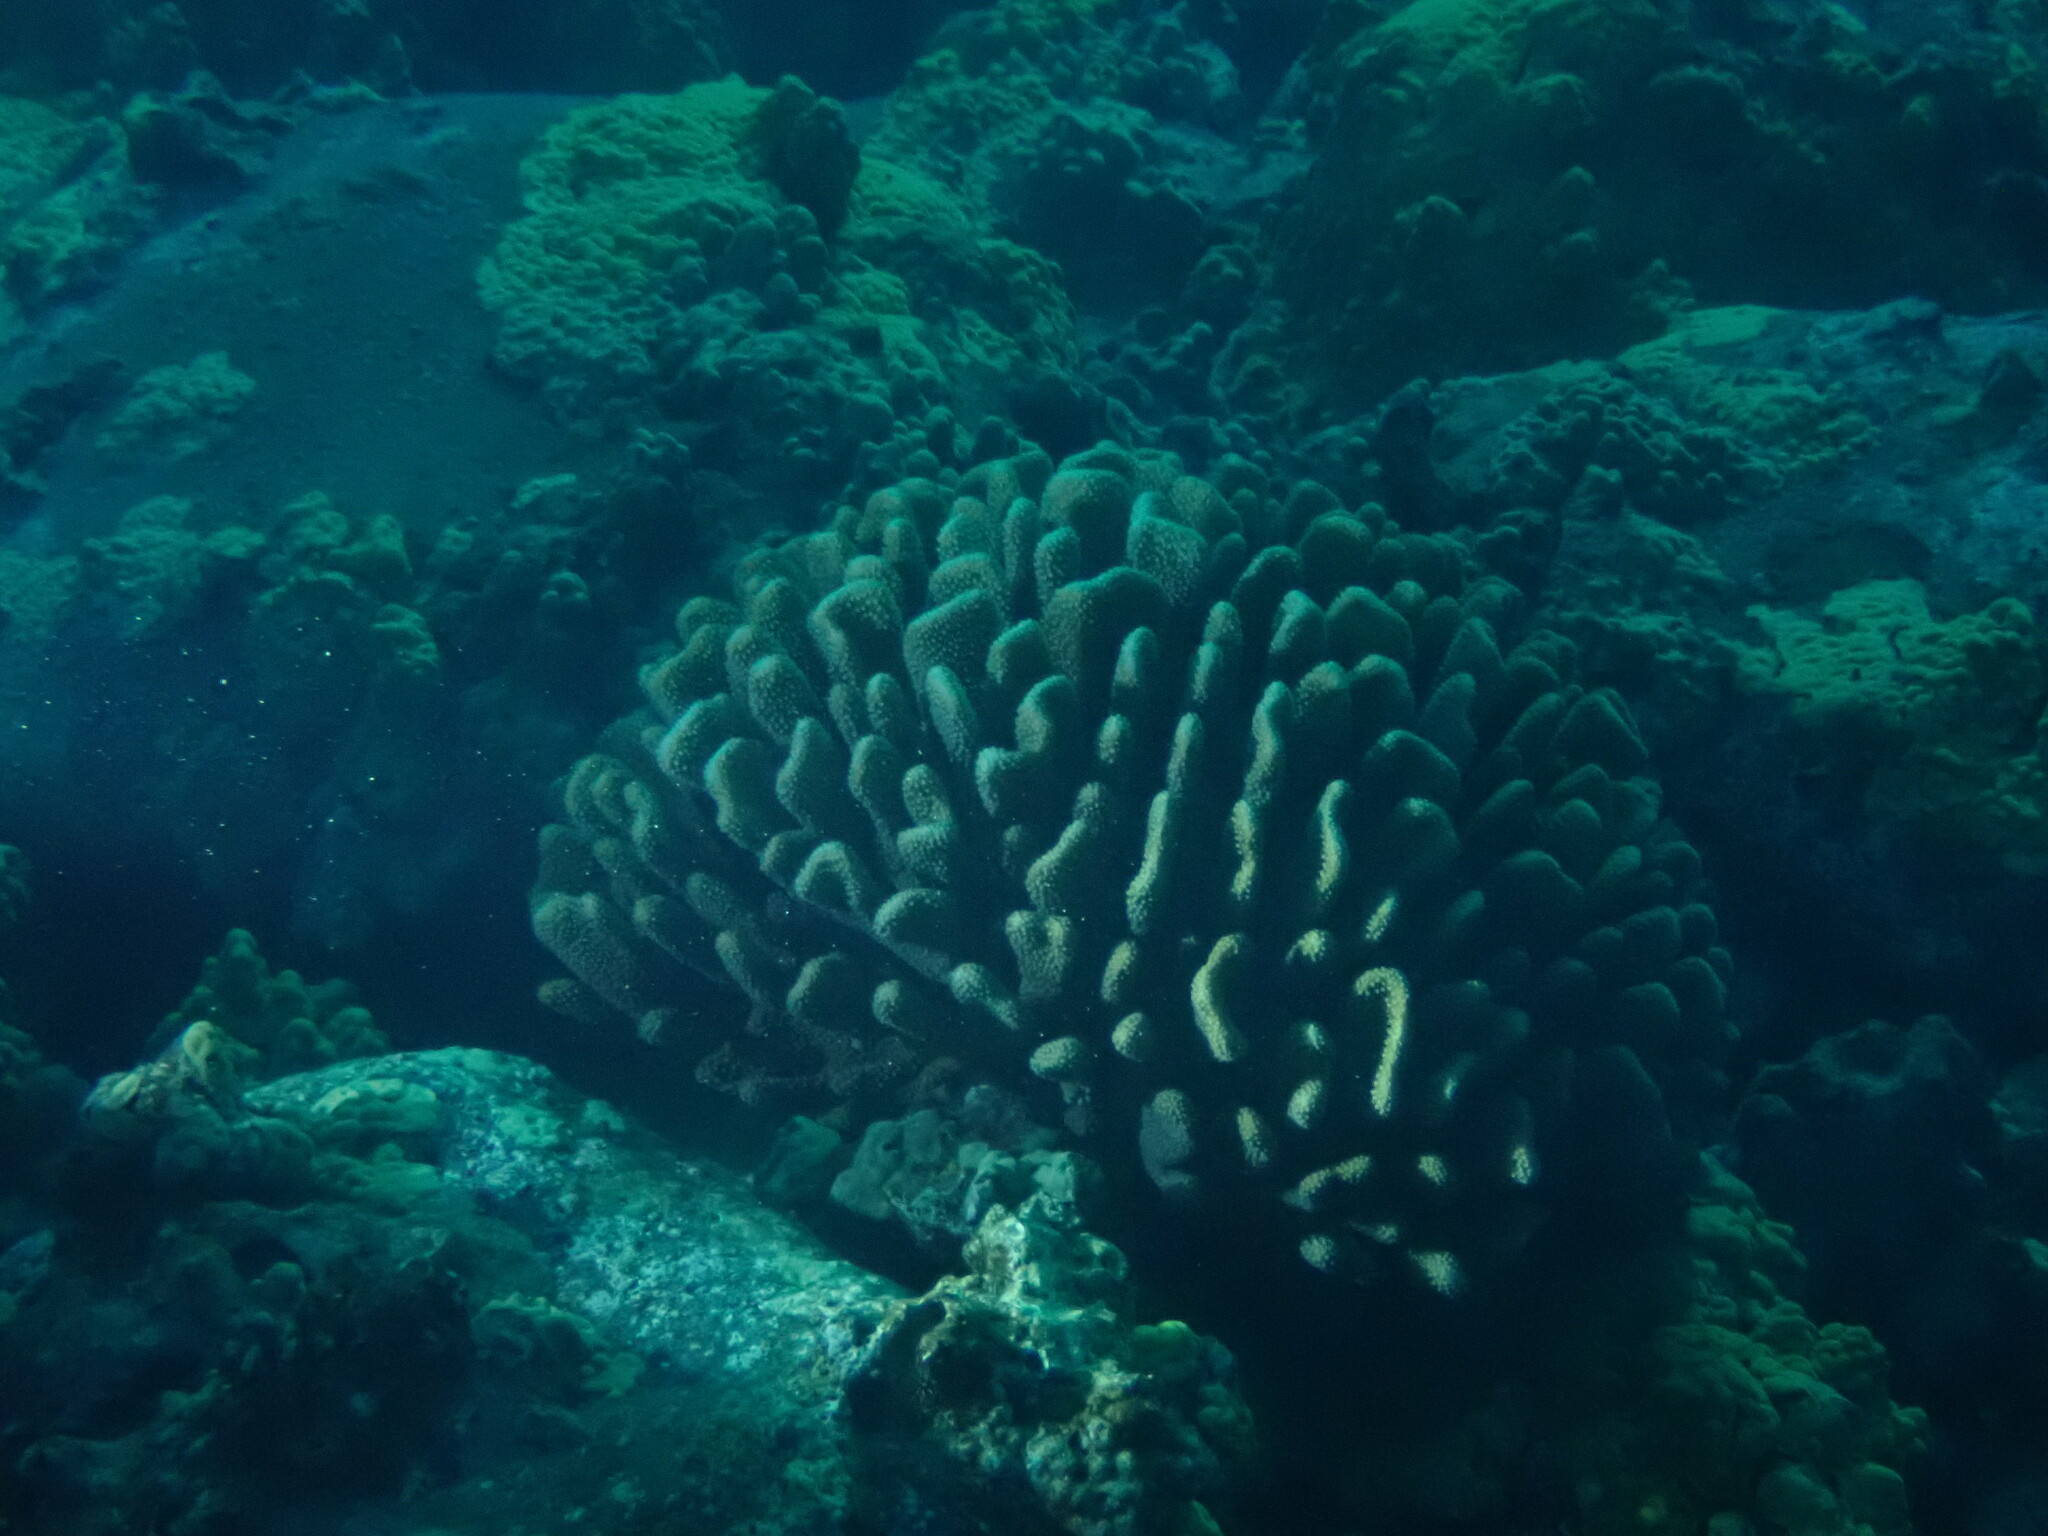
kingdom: Animalia
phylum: Cnidaria
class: Anthozoa
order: Scleractinia
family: Pocilloporidae
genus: Pocillopora
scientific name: Pocillopora grandis
